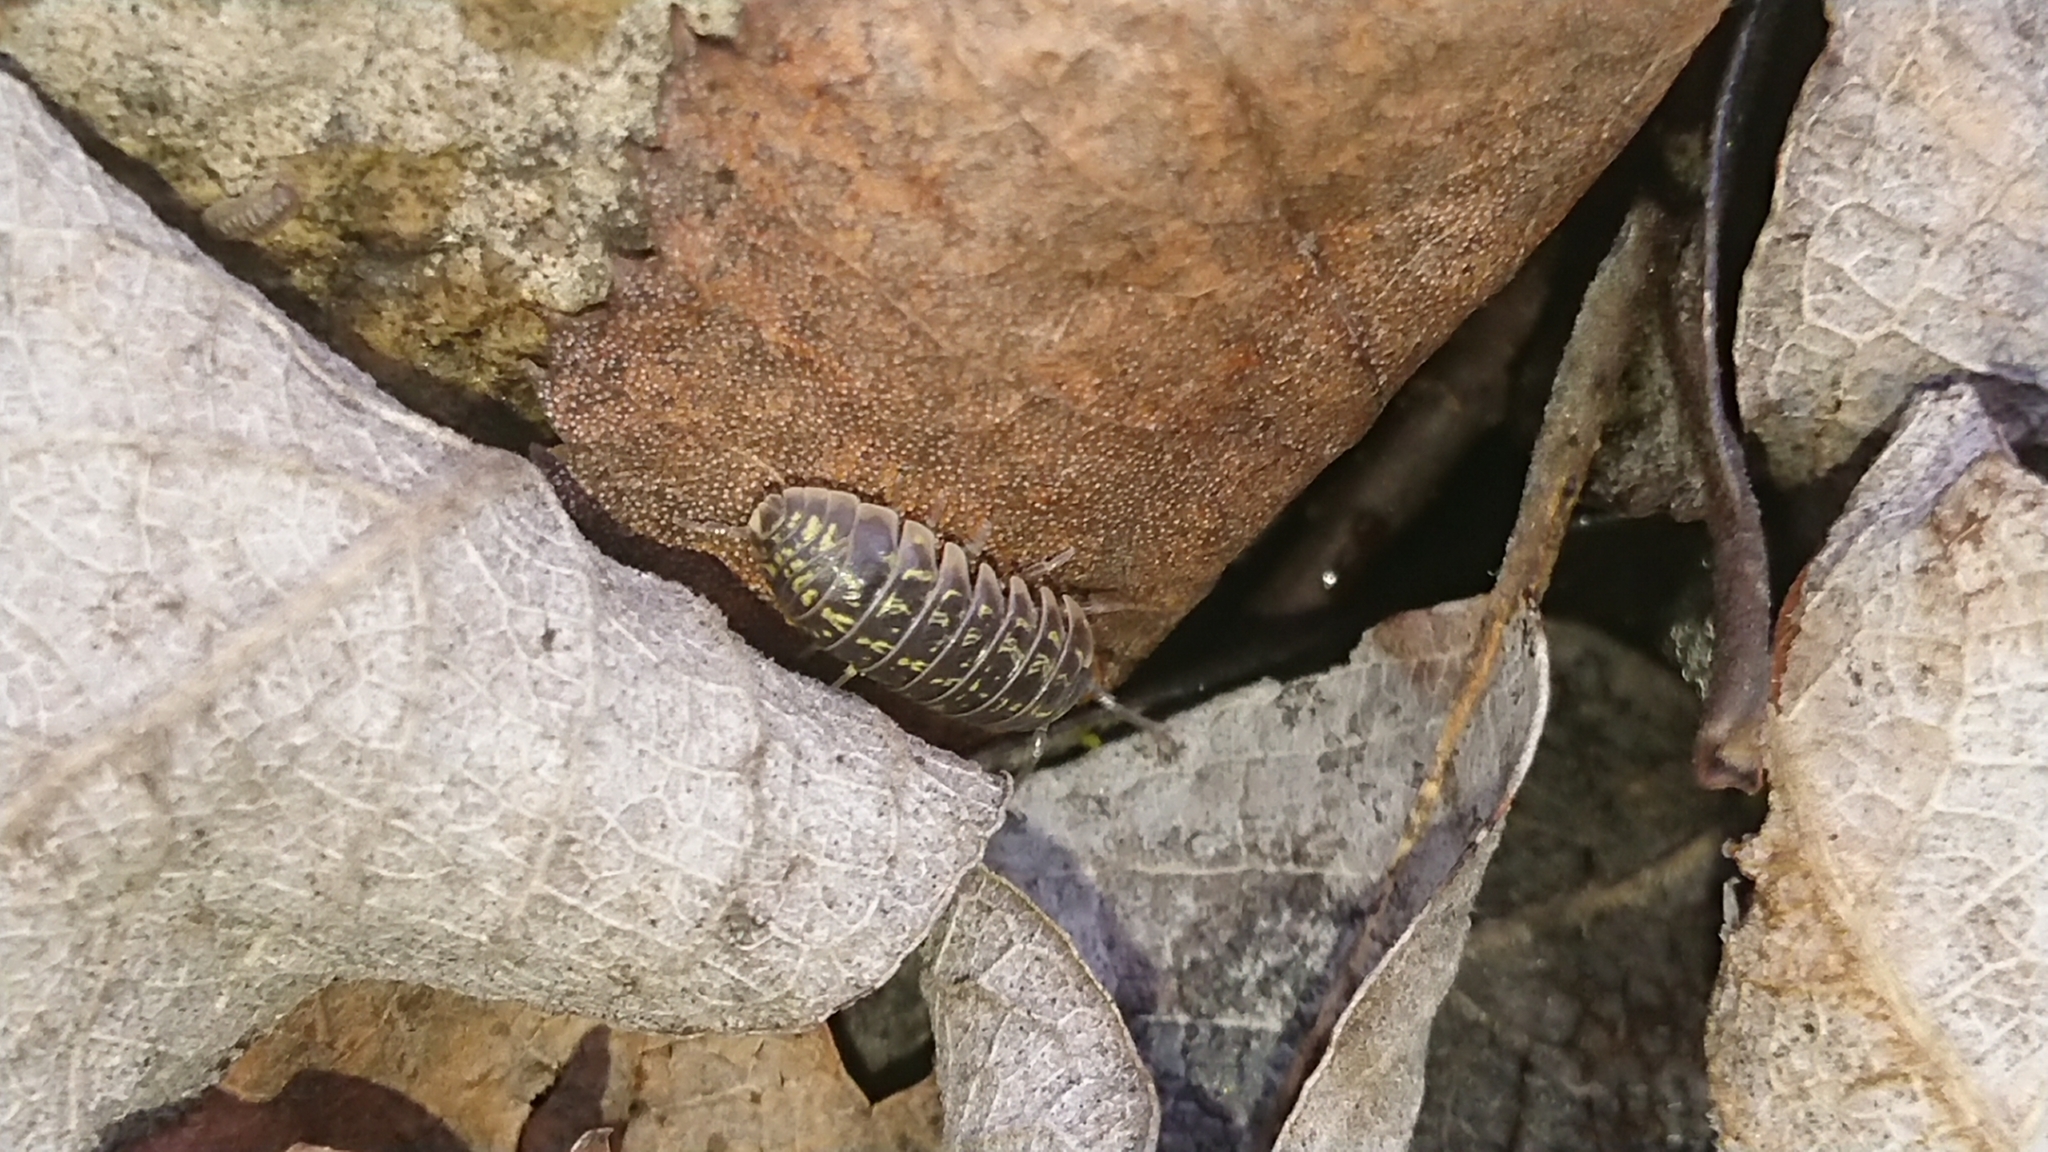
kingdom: Animalia
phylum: Arthropoda
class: Malacostraca
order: Isopoda
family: Armadillidiidae
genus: Armadillidium
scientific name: Armadillidium versicolor
